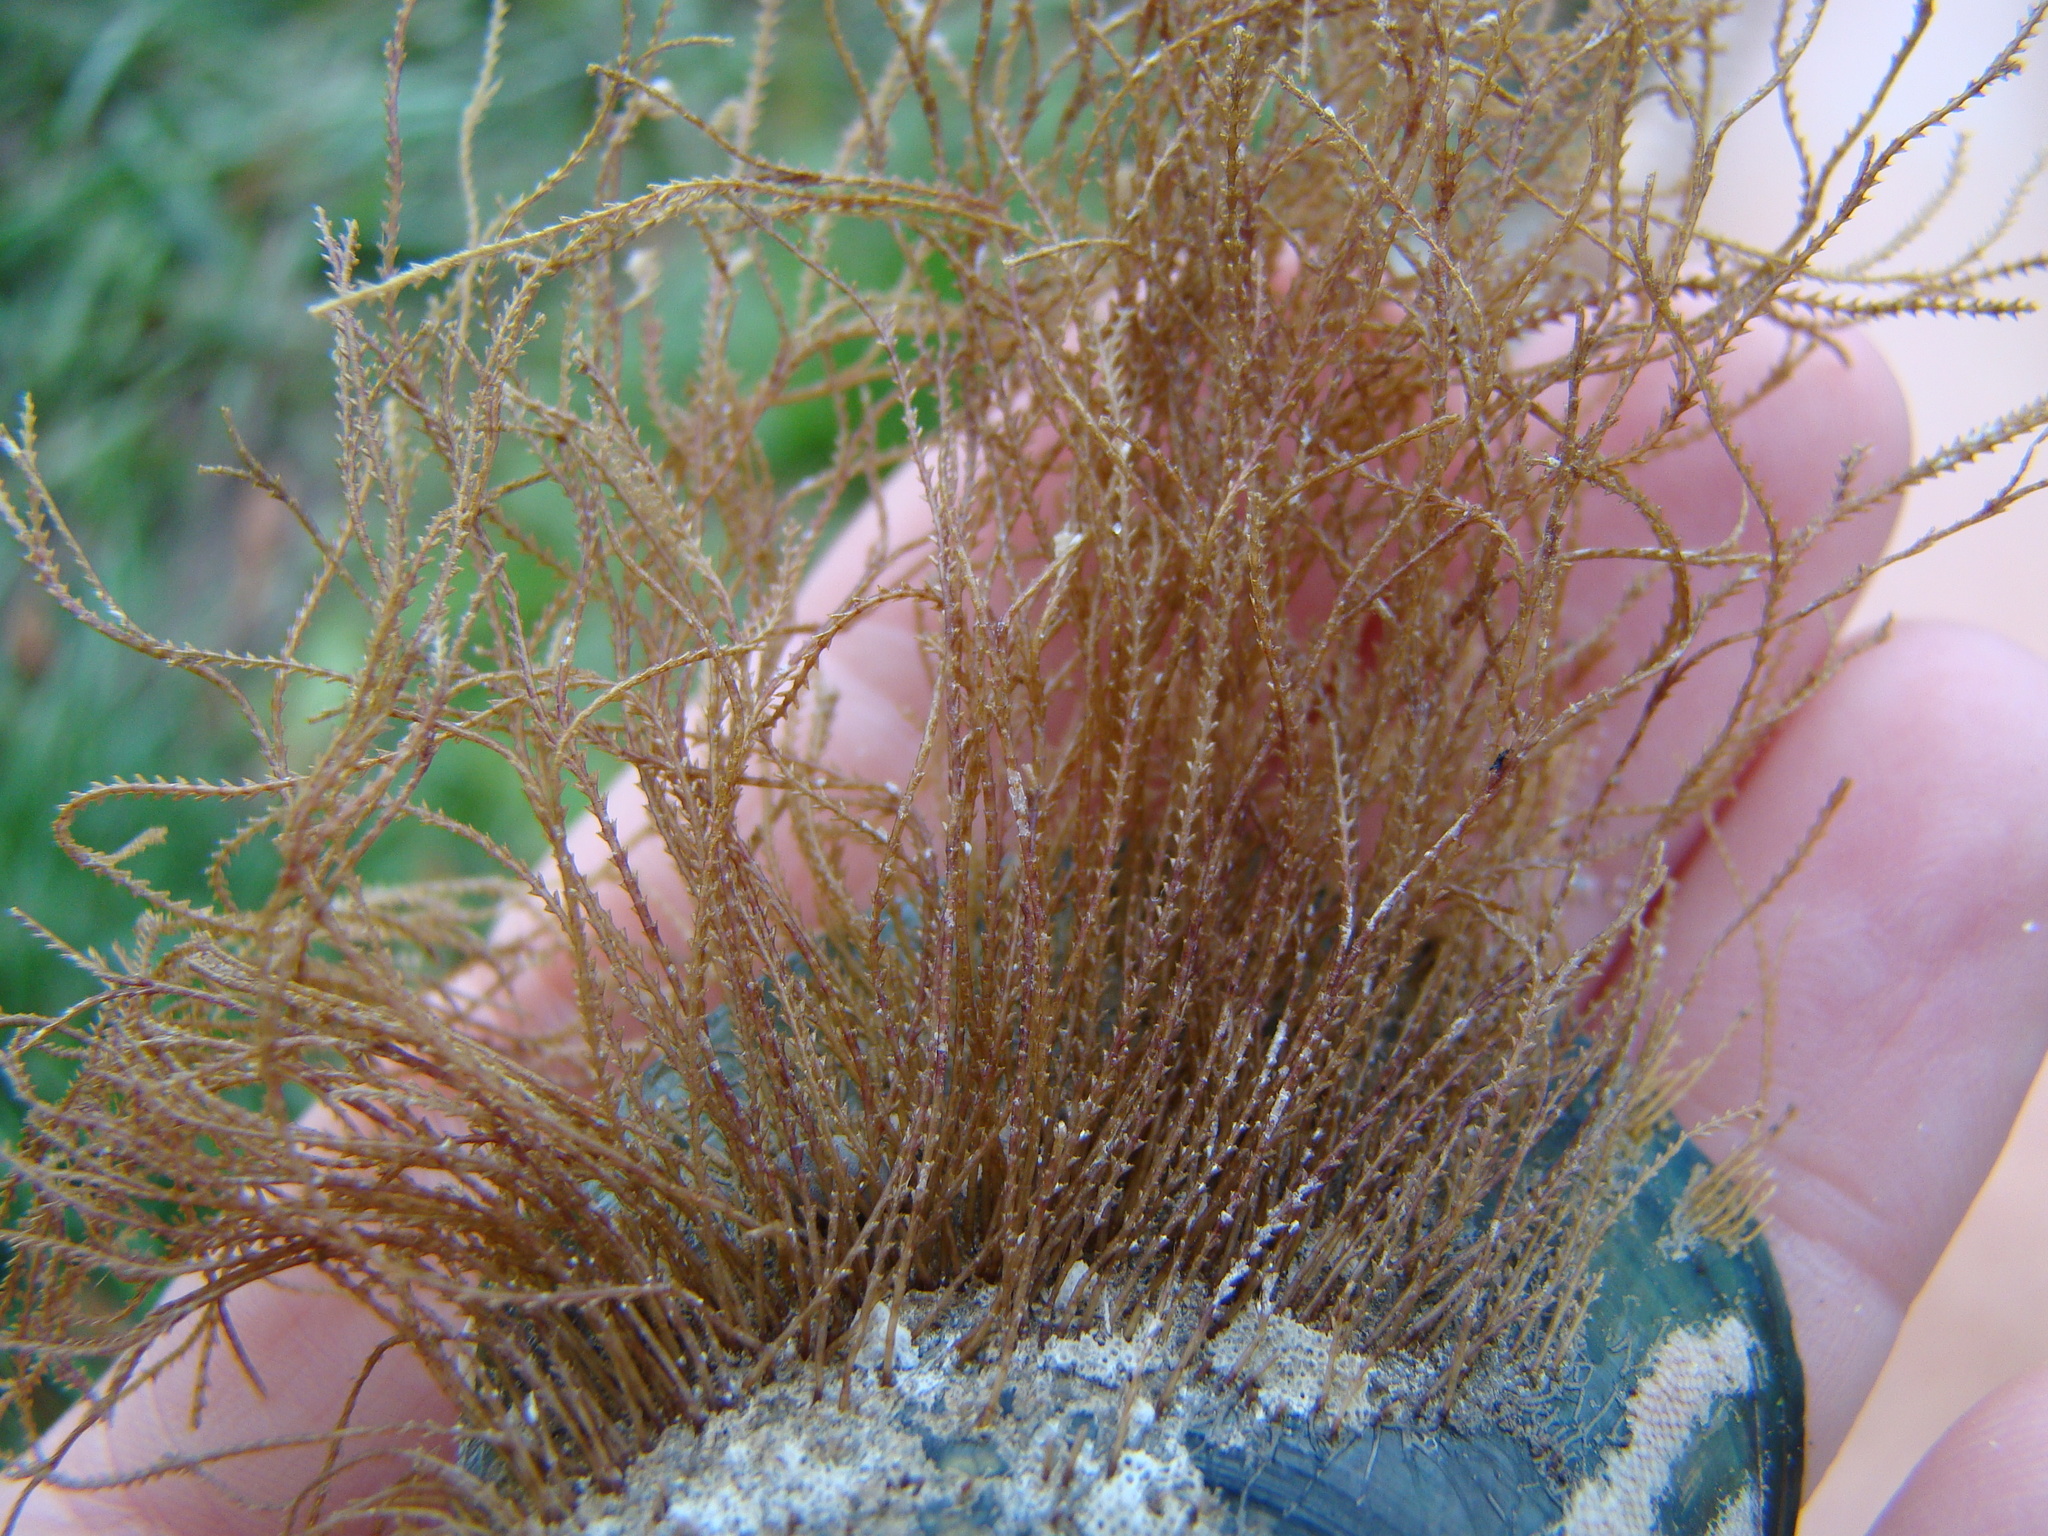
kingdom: Animalia
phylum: Cnidaria
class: Hydrozoa
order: Leptothecata
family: Sertulariidae
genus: Amphisbetia
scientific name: Amphisbetia bispinosa
